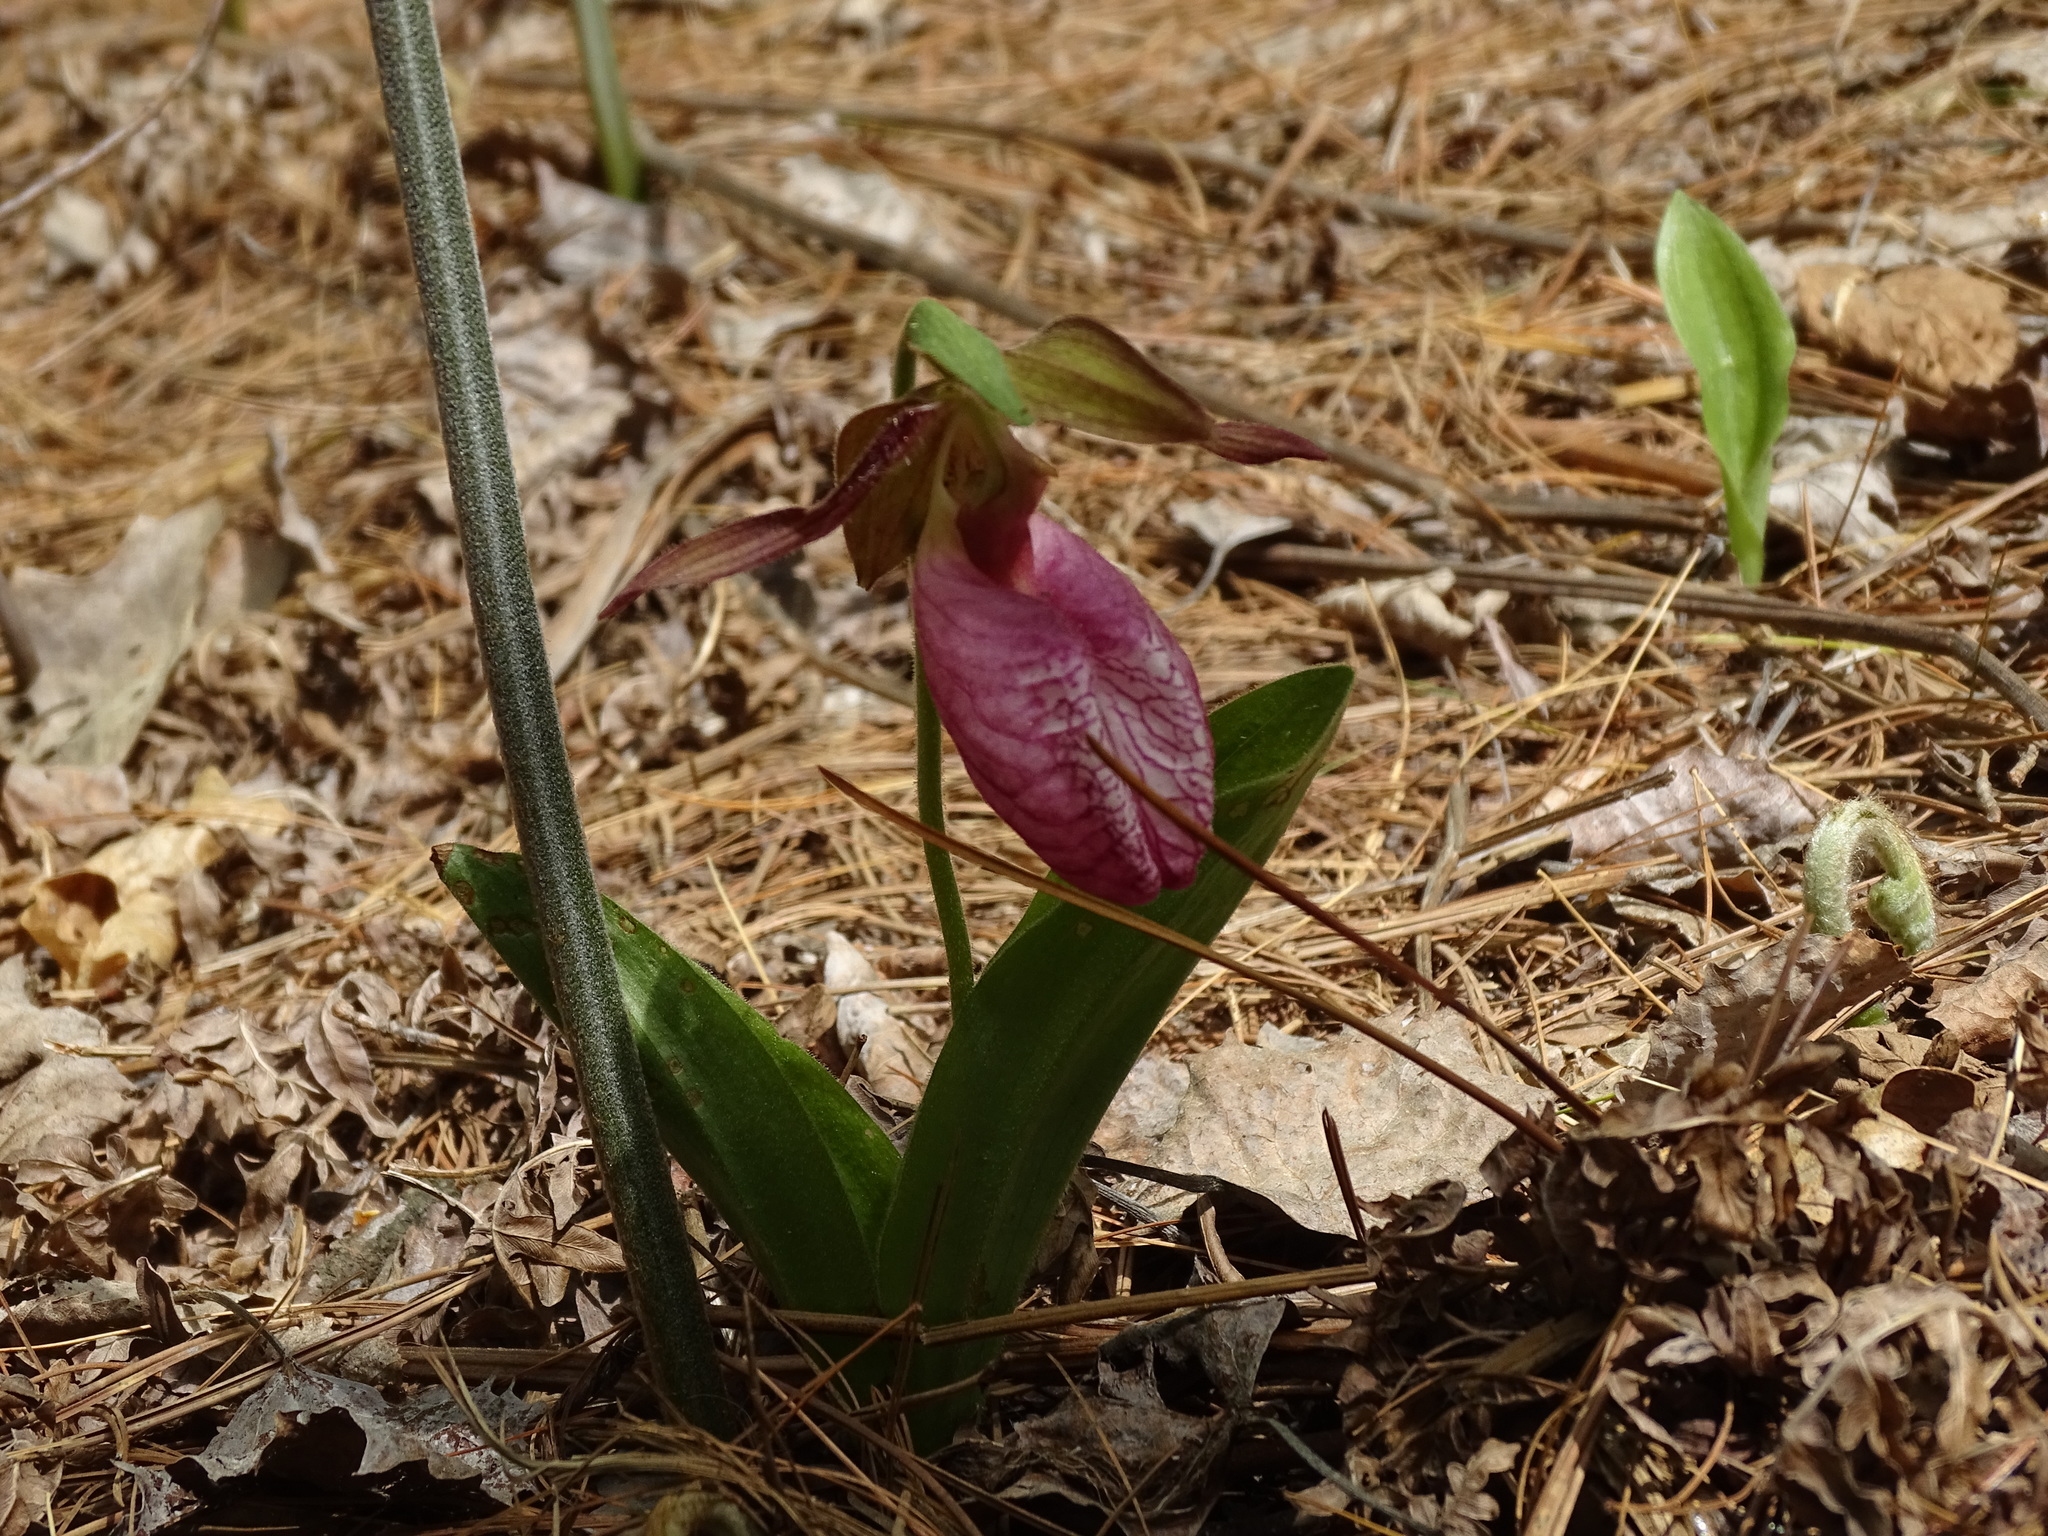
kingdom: Plantae
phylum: Tracheophyta
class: Liliopsida
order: Asparagales
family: Orchidaceae
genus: Cypripedium
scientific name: Cypripedium acaule
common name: Pink lady's-slipper
